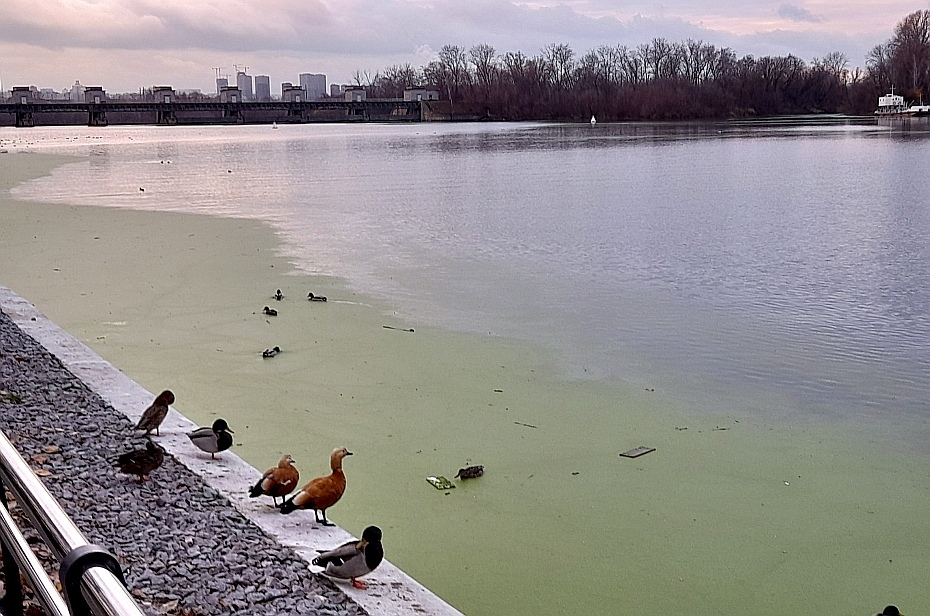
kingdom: Animalia
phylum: Chordata
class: Aves
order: Anseriformes
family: Anatidae
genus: Tadorna
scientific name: Tadorna ferruginea
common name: Ruddy shelduck
